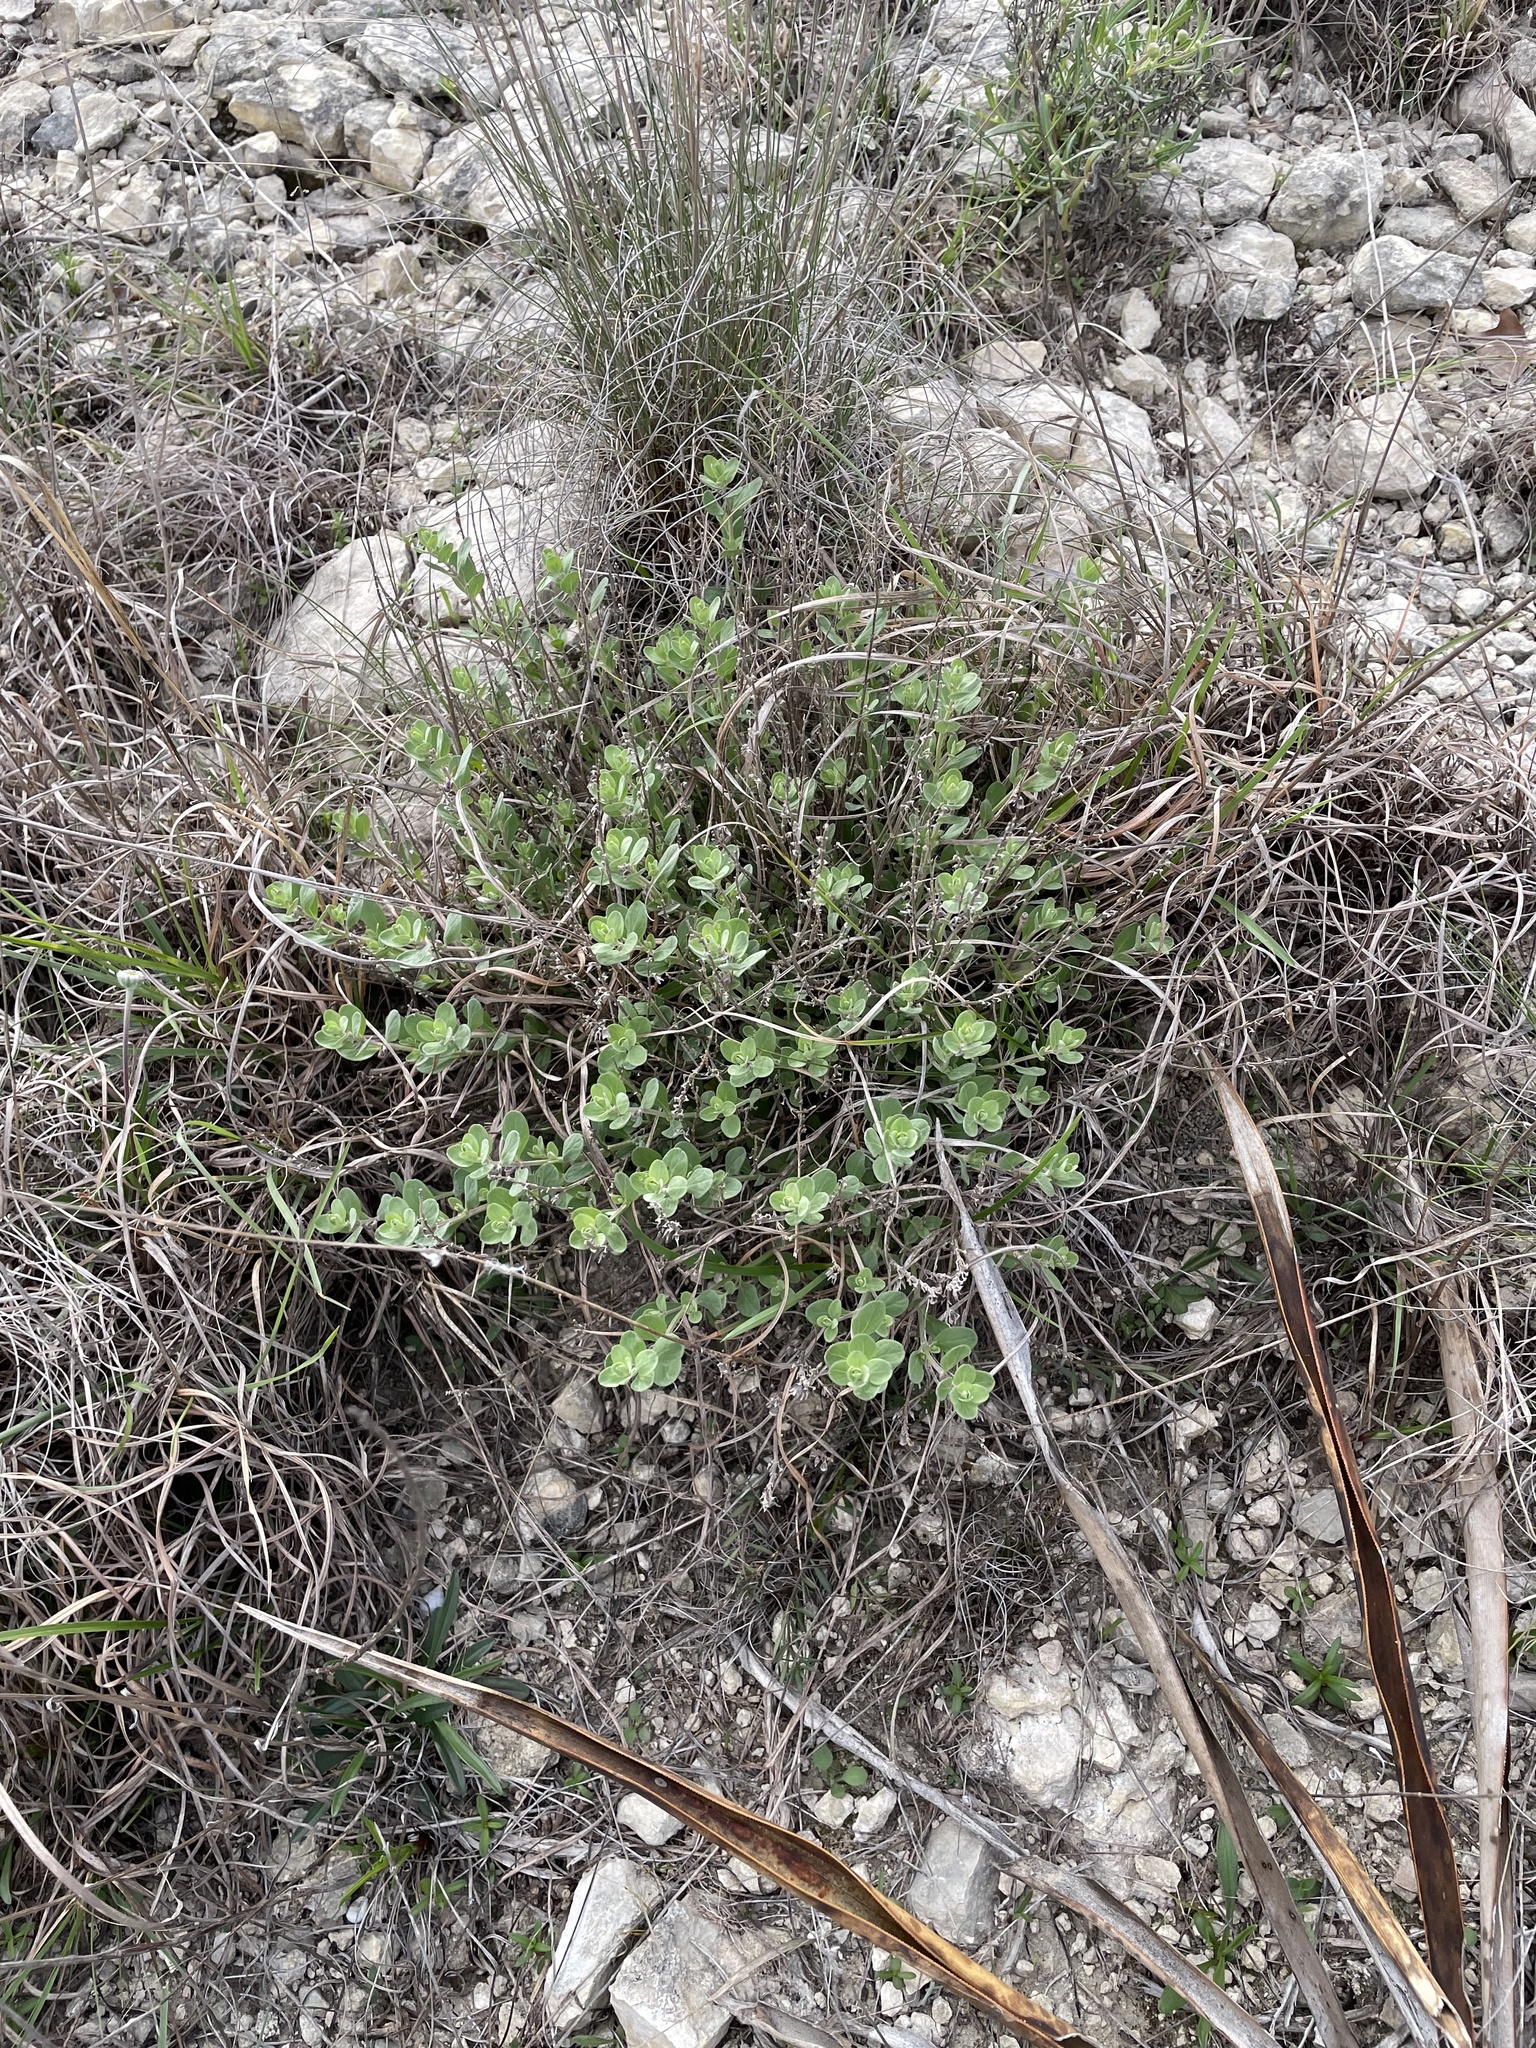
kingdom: Plantae
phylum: Tracheophyta
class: Magnoliopsida
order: Lamiales
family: Lamiaceae
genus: Scutellaria
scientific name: Scutellaria wrightii
